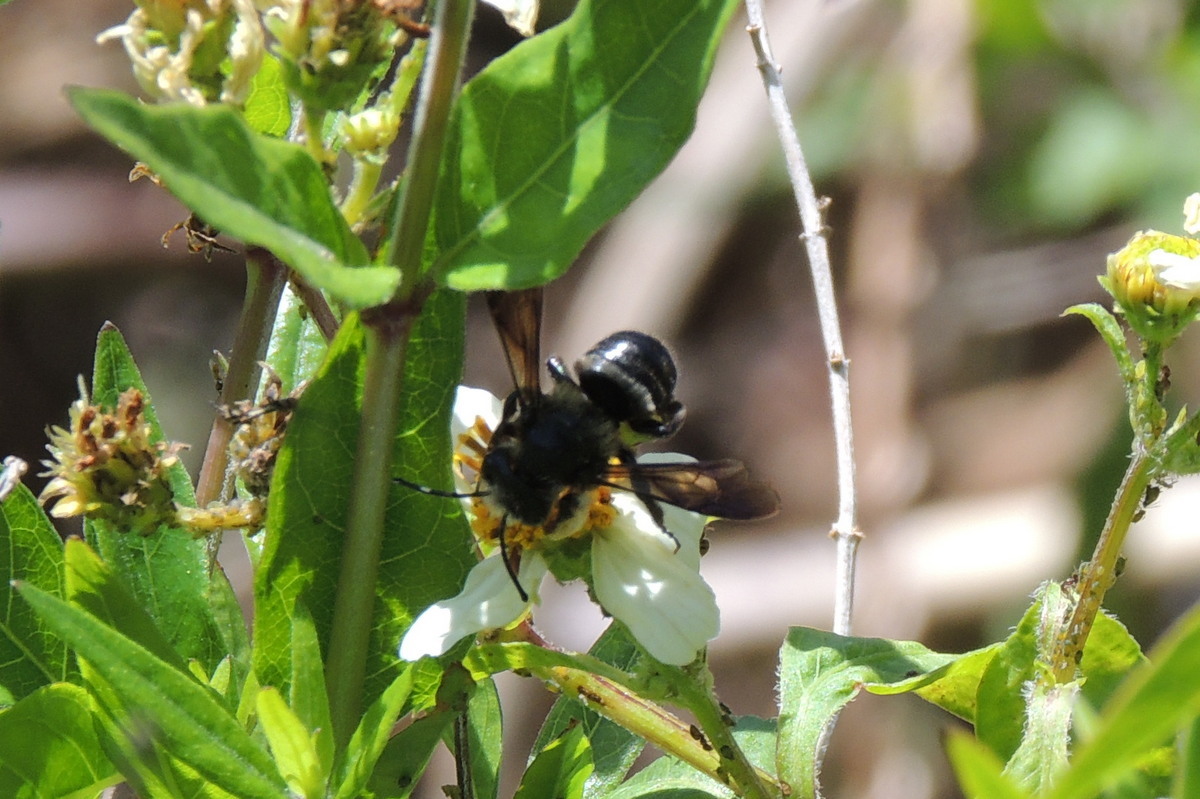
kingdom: Animalia
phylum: Arthropoda
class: Insecta
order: Hymenoptera
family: Megachilidae
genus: Megachile
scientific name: Megachile xylocopoides
